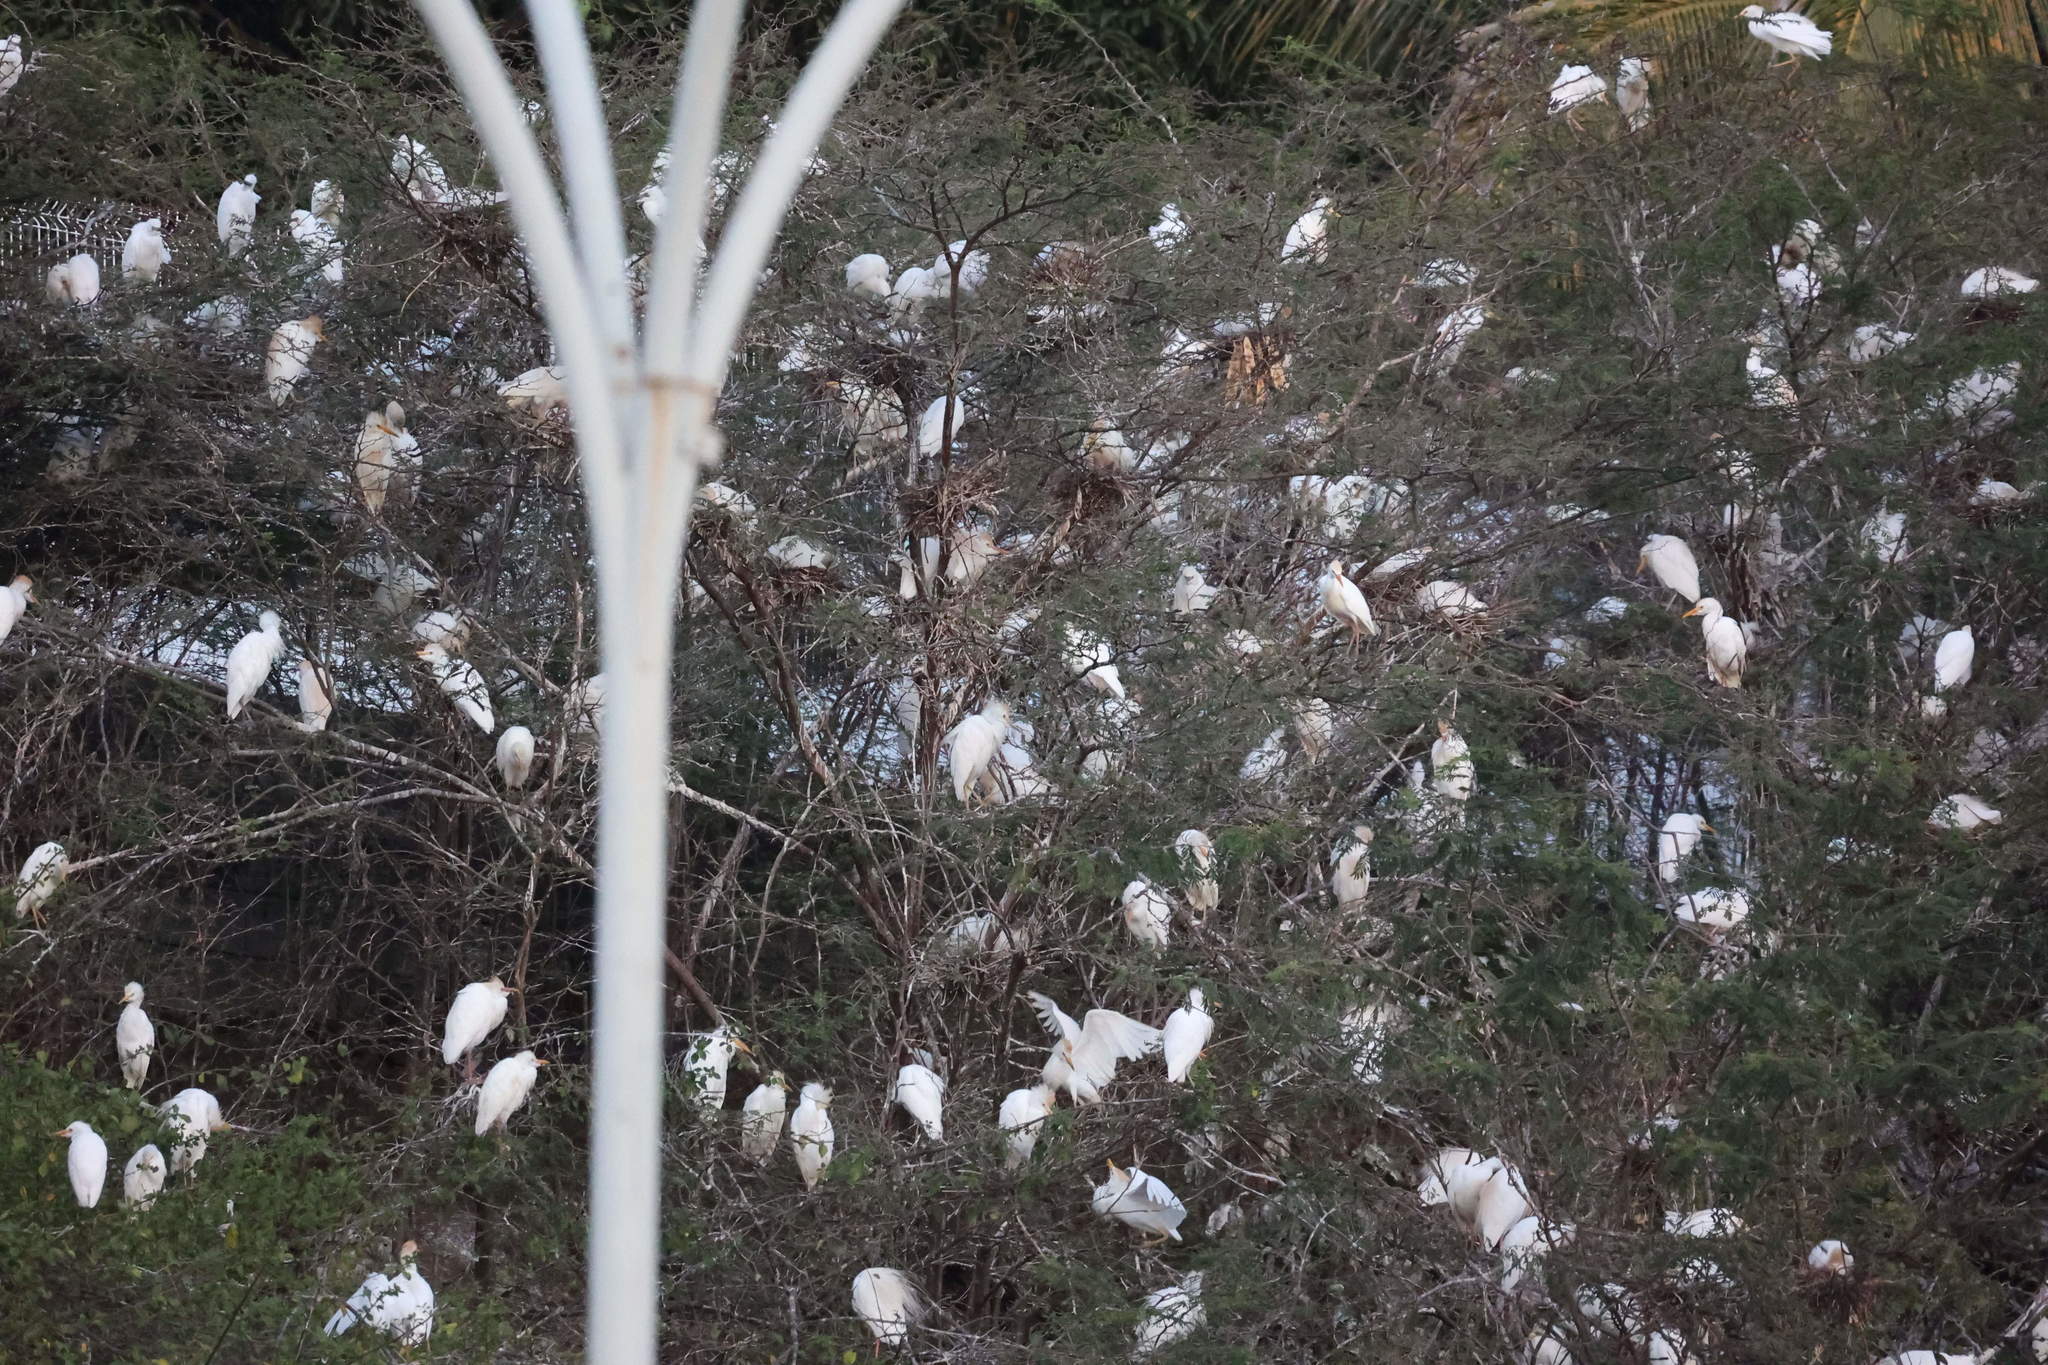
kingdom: Animalia
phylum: Chordata
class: Aves
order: Pelecaniformes
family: Ardeidae
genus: Bubulcus
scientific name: Bubulcus ibis
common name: Cattle egret
